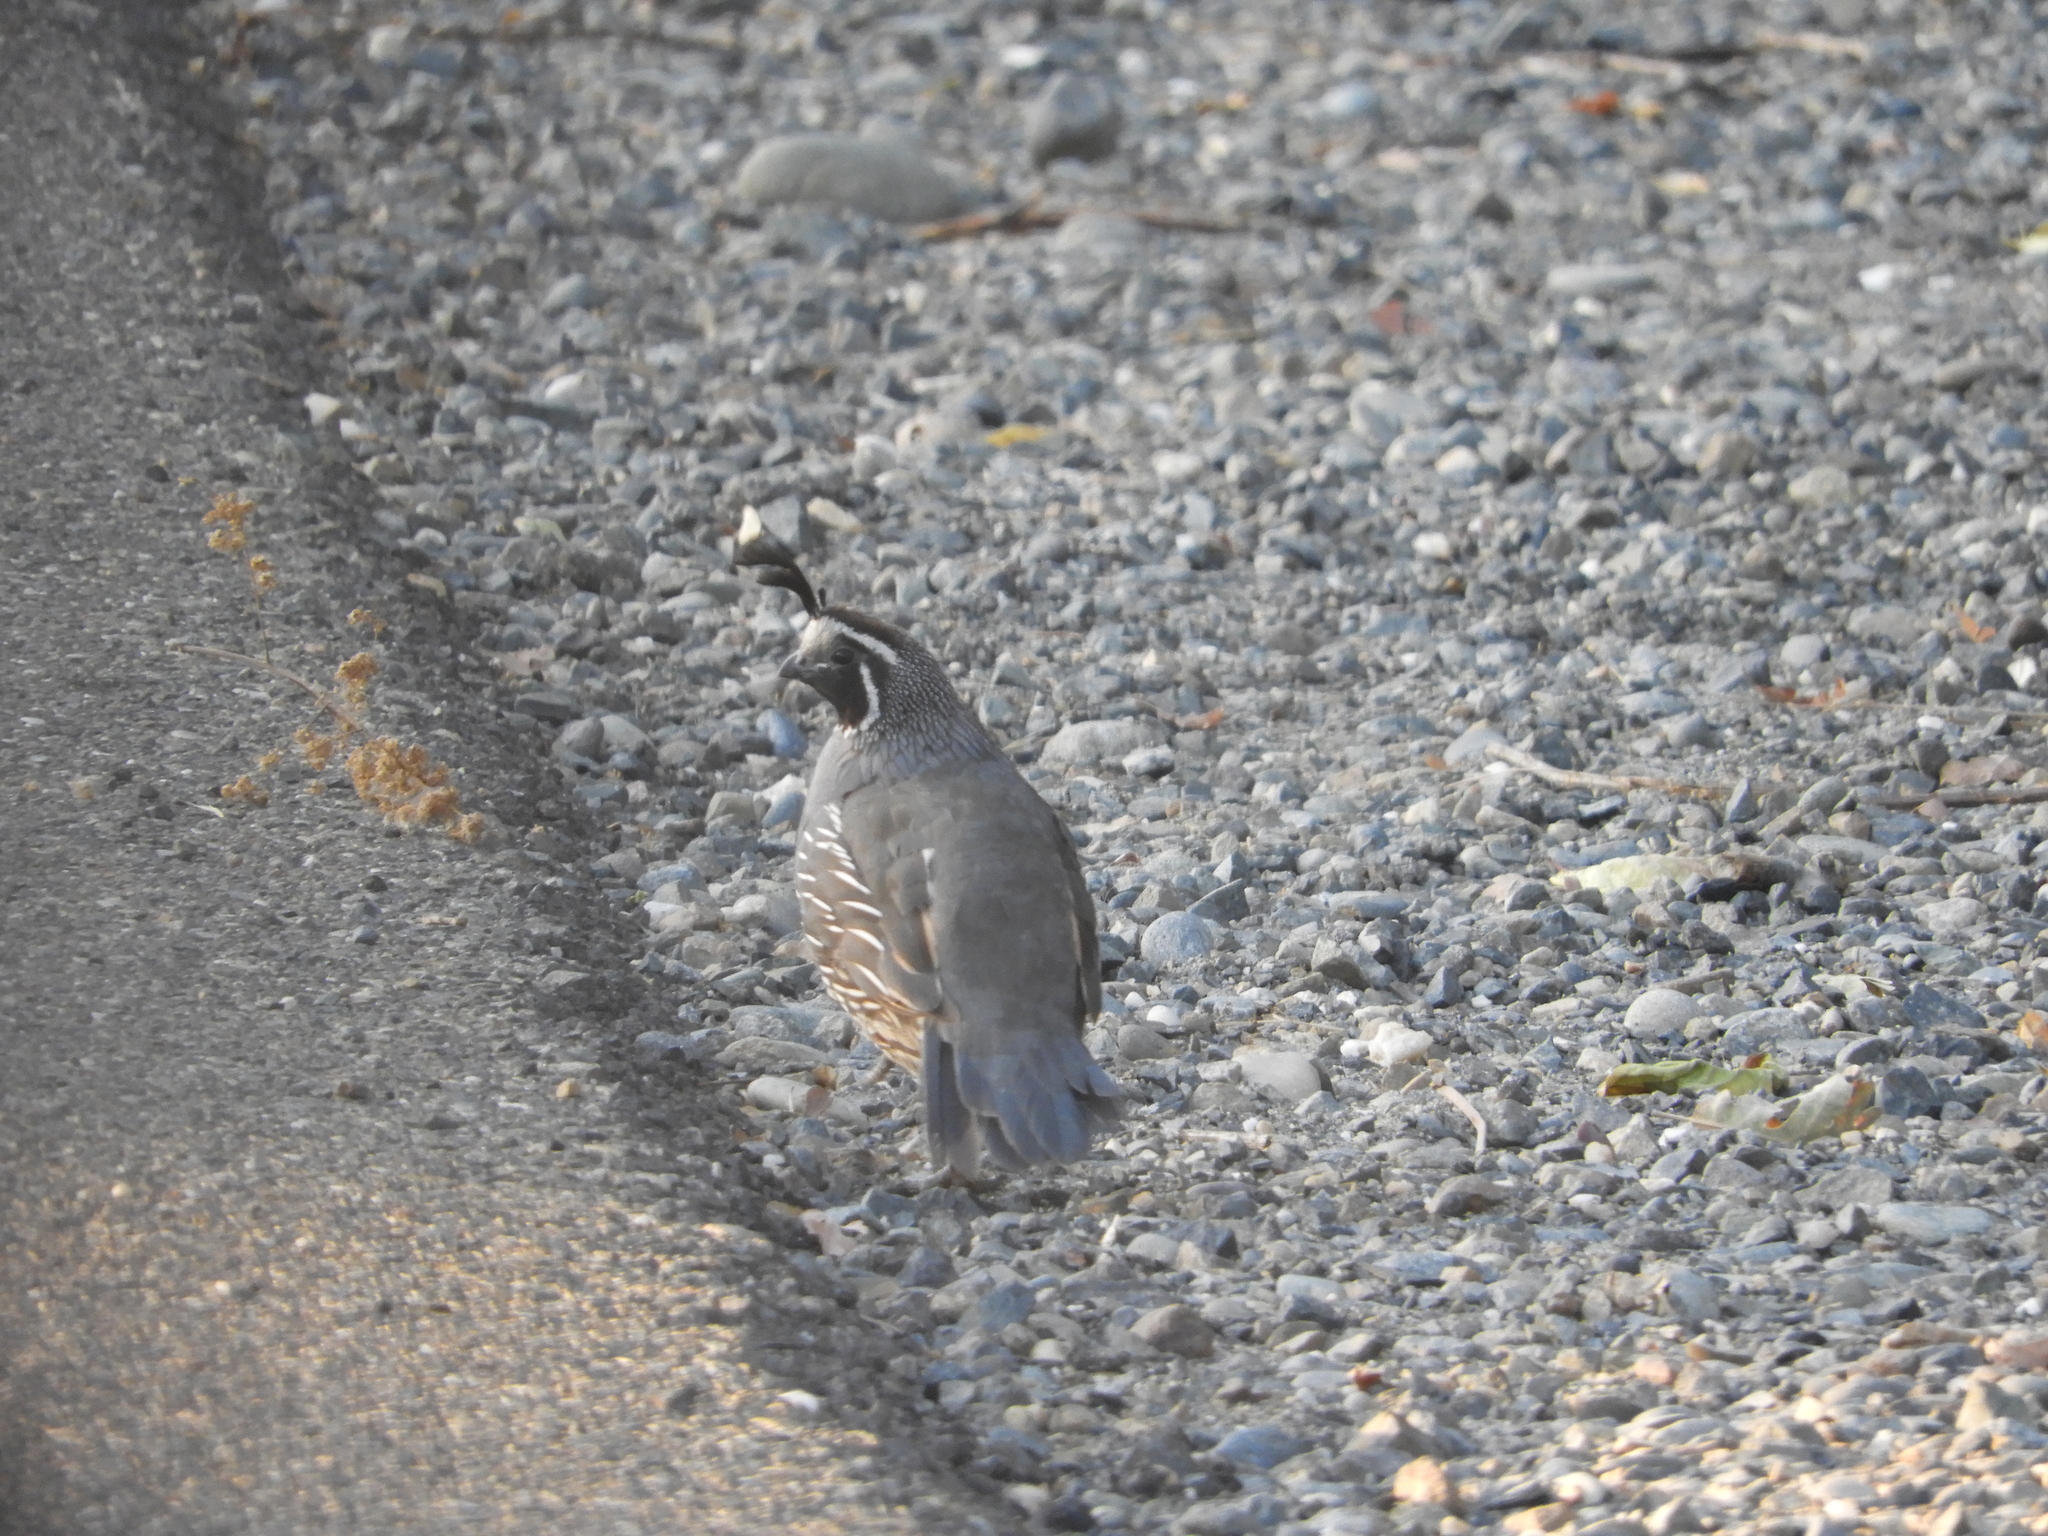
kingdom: Animalia
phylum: Chordata
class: Aves
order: Galliformes
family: Odontophoridae
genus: Callipepla
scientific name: Callipepla californica
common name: California quail
